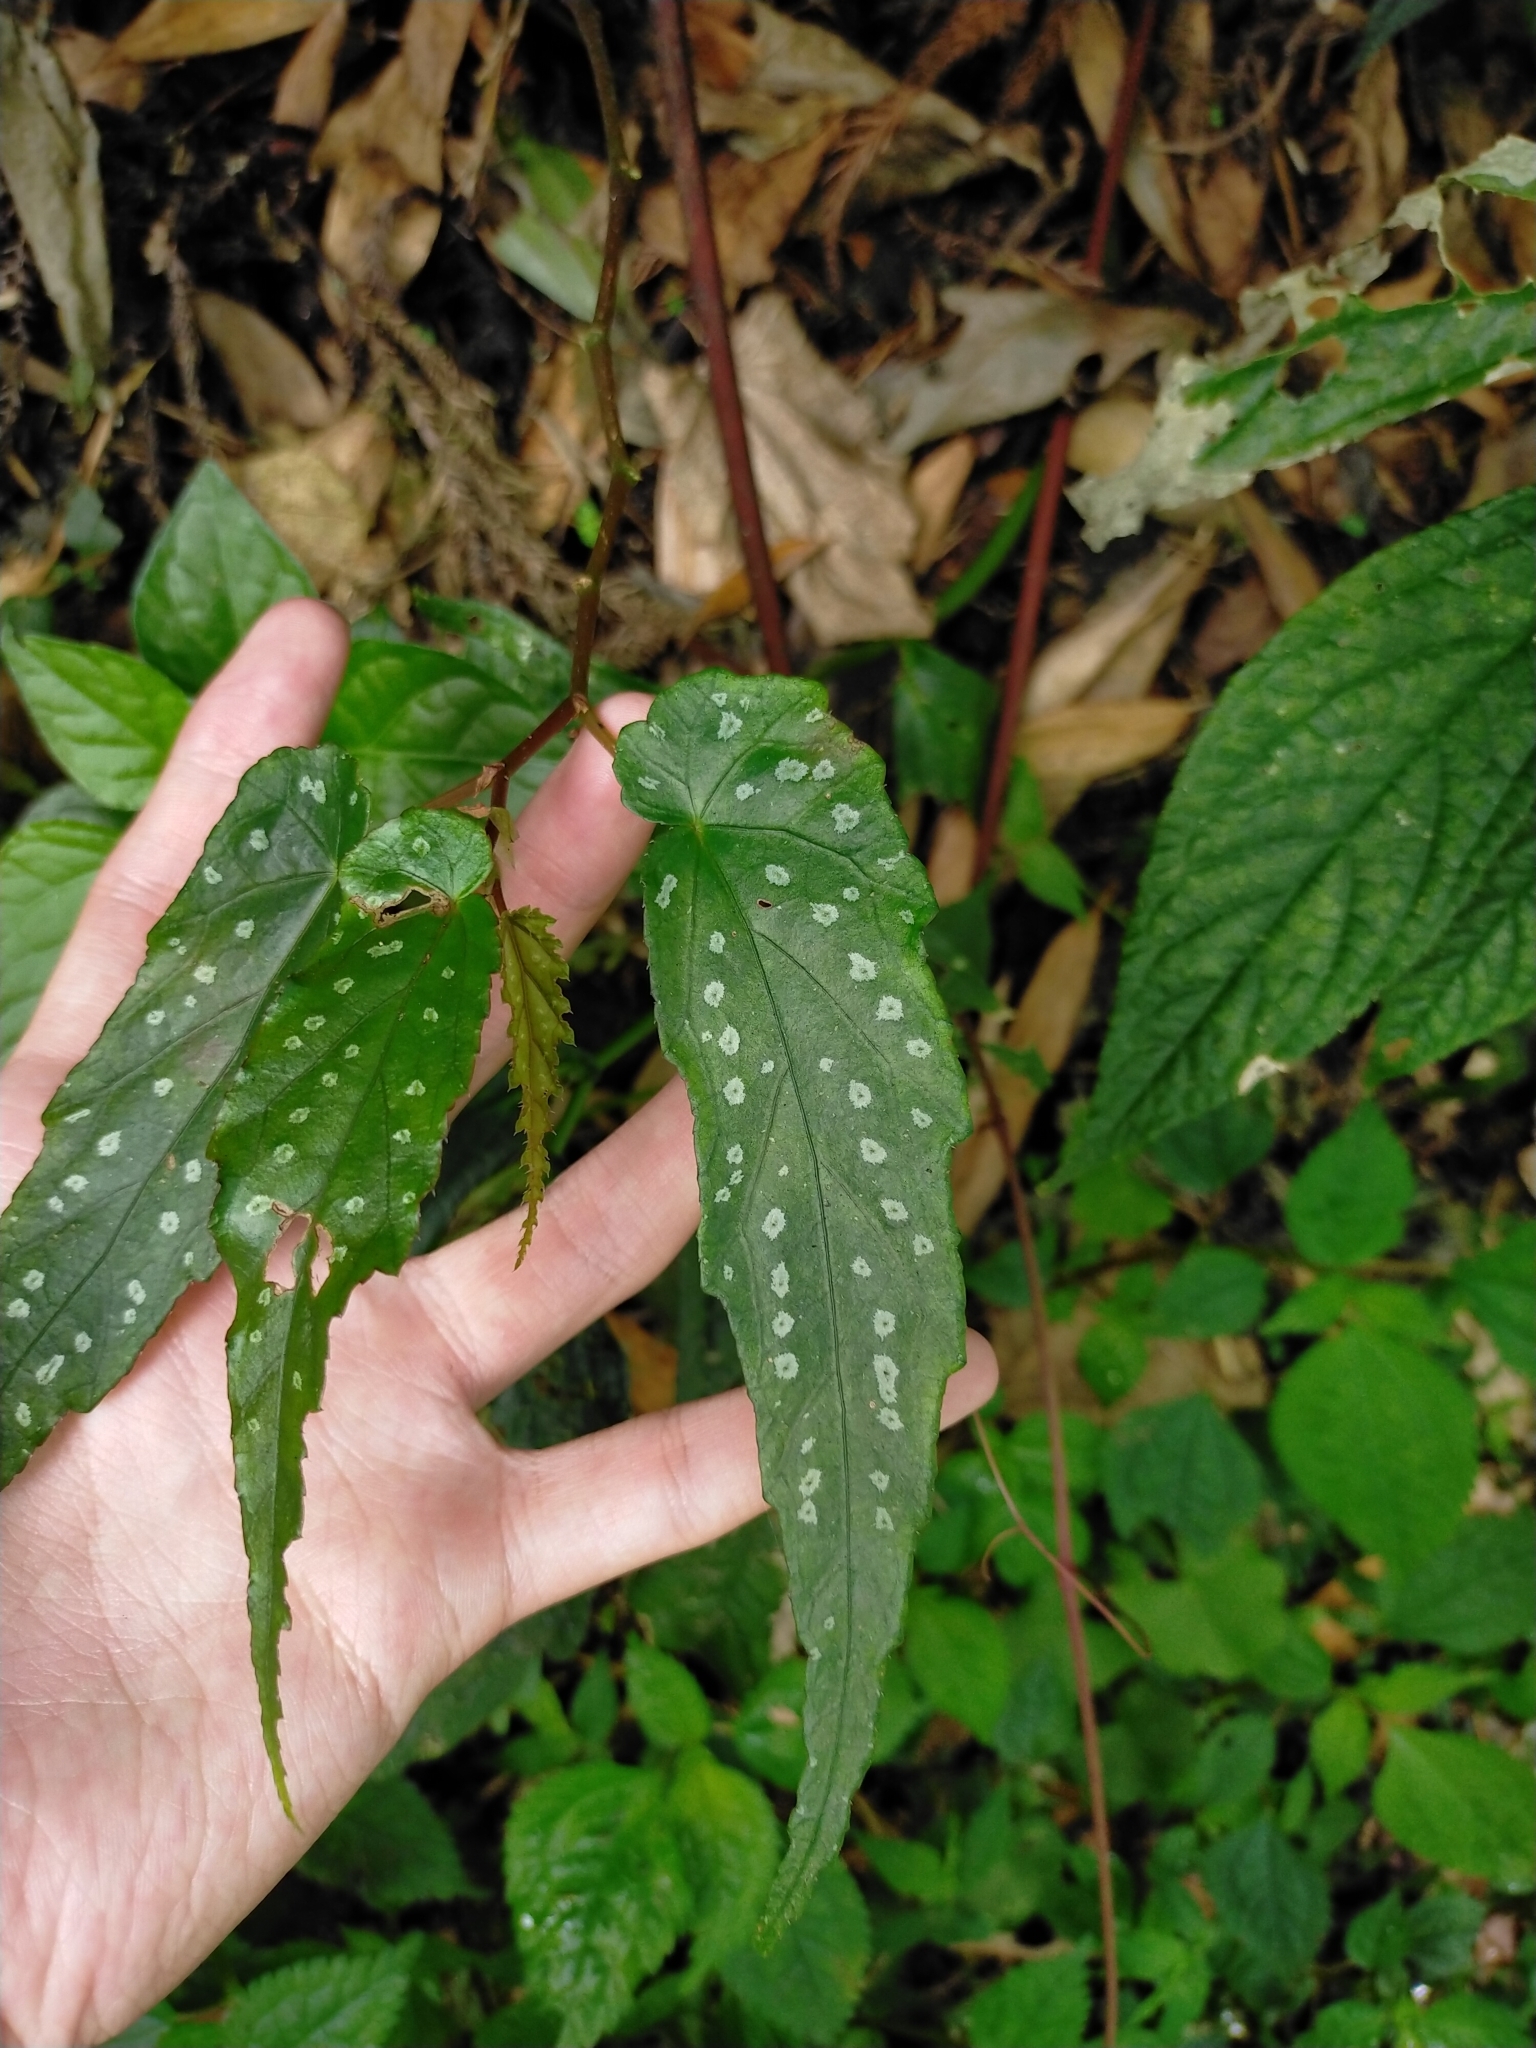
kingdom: Plantae
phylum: Tracheophyta
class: Magnoliopsida
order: Cucurbitales
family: Begoniaceae
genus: Begonia
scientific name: Begonia taiwaniana
